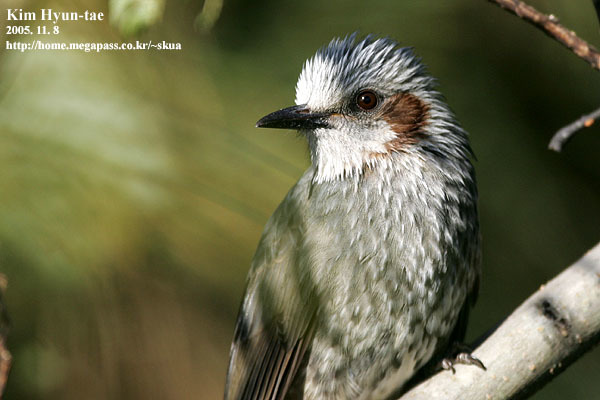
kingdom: Animalia
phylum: Chordata
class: Aves
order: Passeriformes
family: Pycnonotidae
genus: Hypsipetes
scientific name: Hypsipetes amaurotis
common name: Brown-eared bulbul
